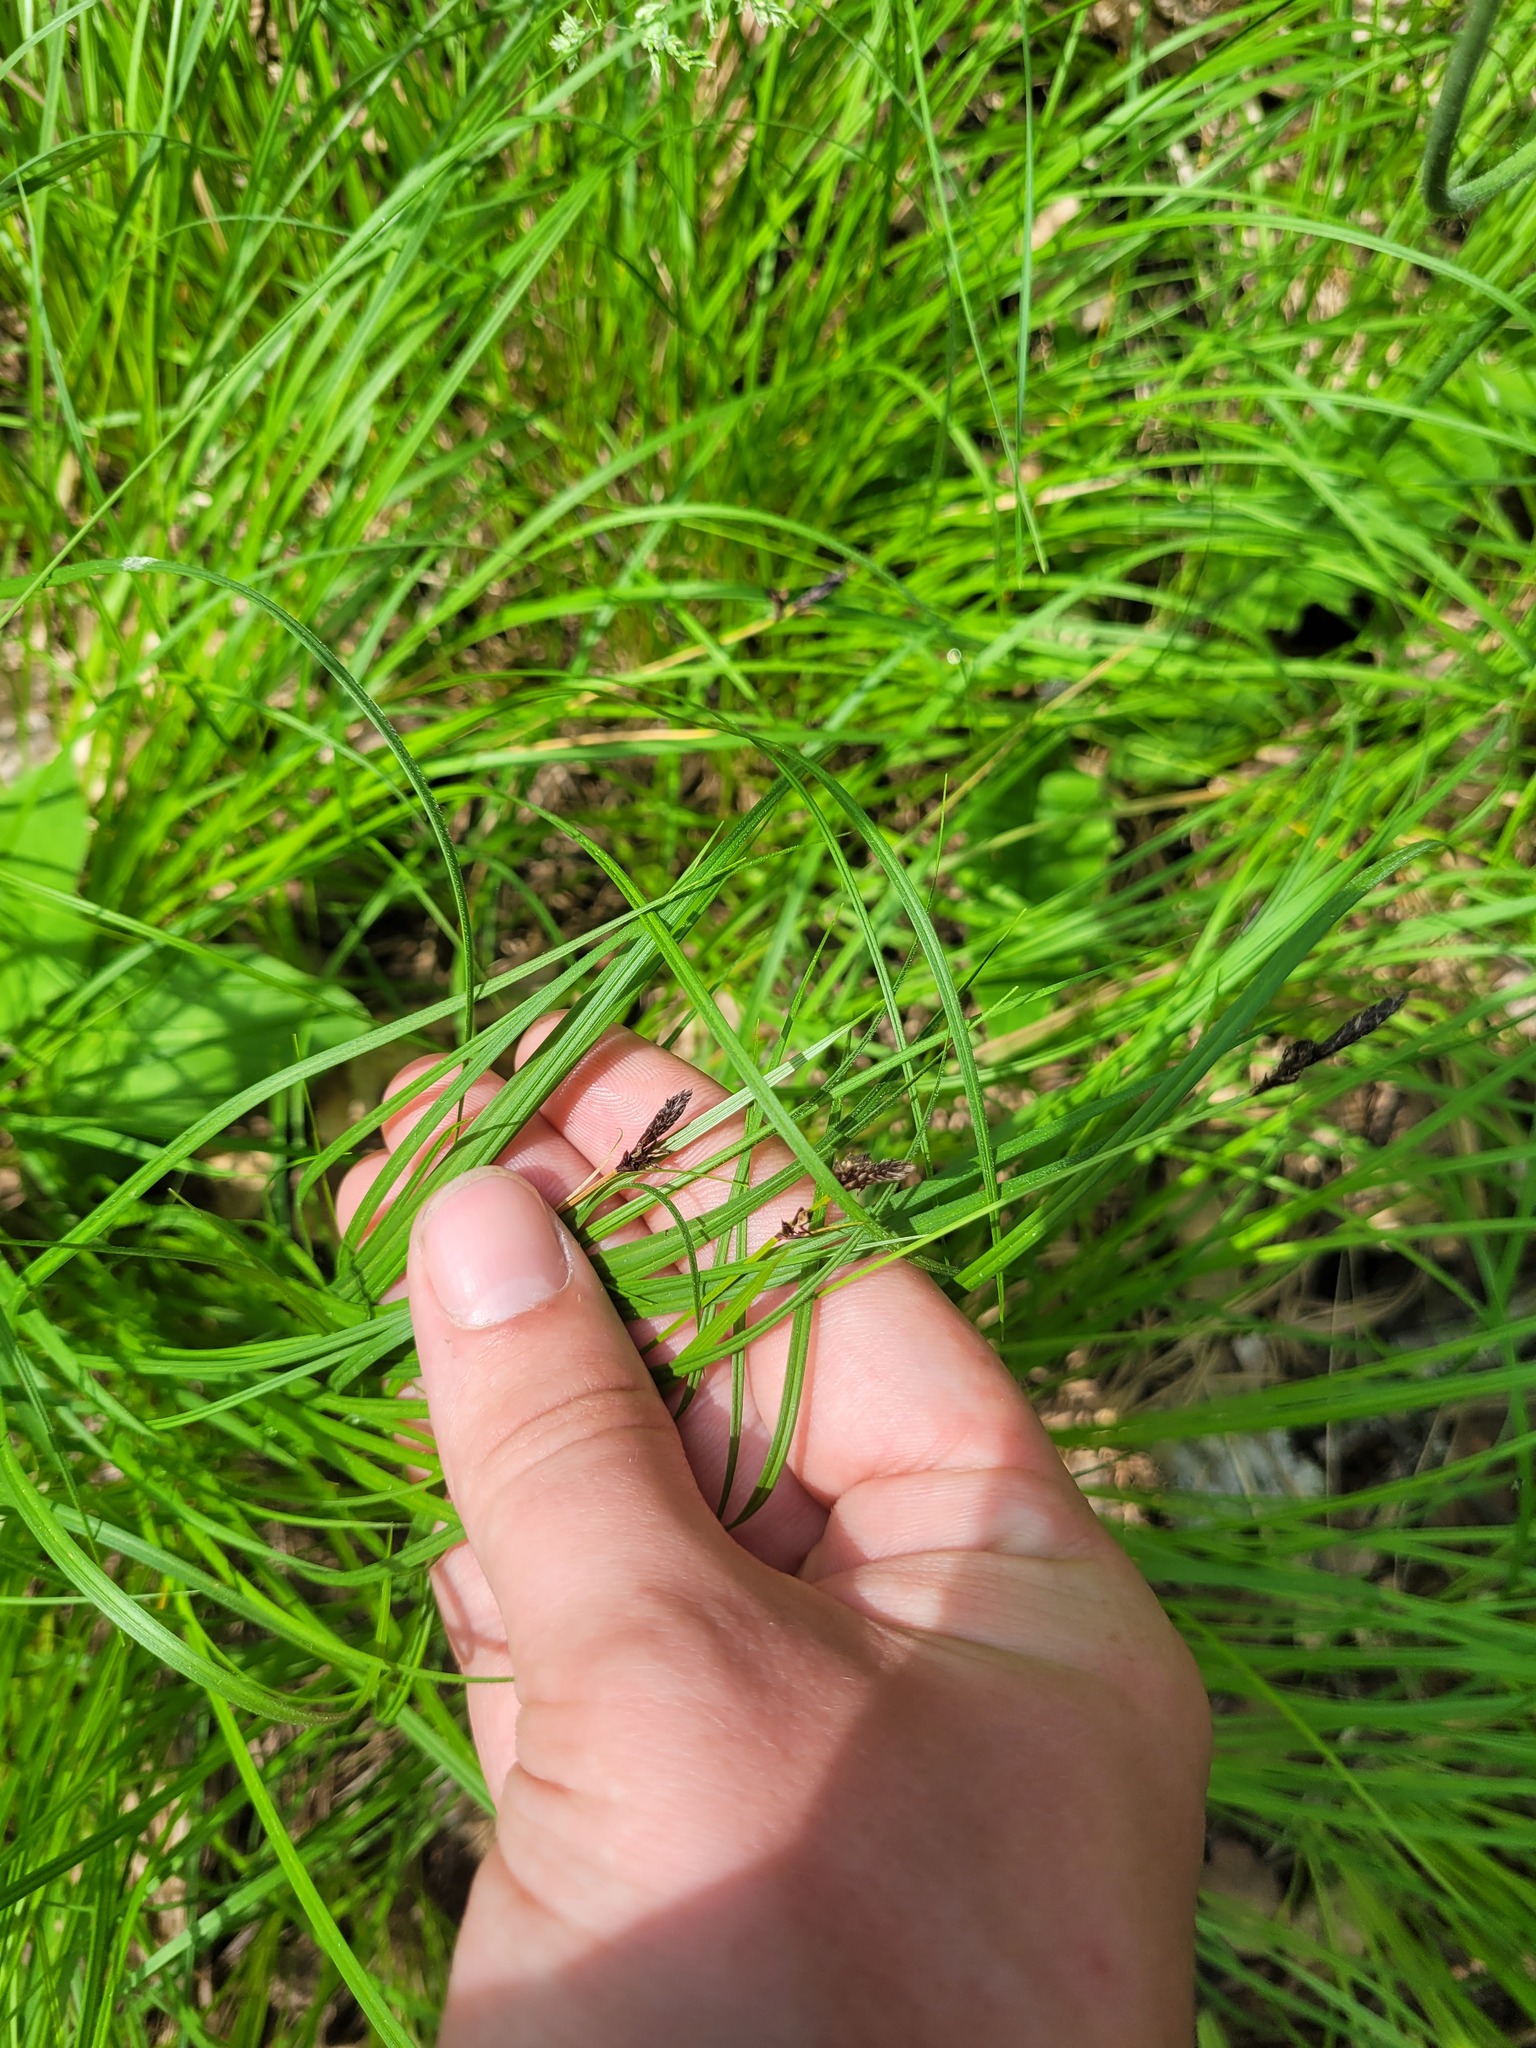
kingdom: Plantae
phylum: Tracheophyta
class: Liliopsida
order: Poales
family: Cyperaceae
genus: Carex
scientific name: Carex montana
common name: Soft-leaved sedge
